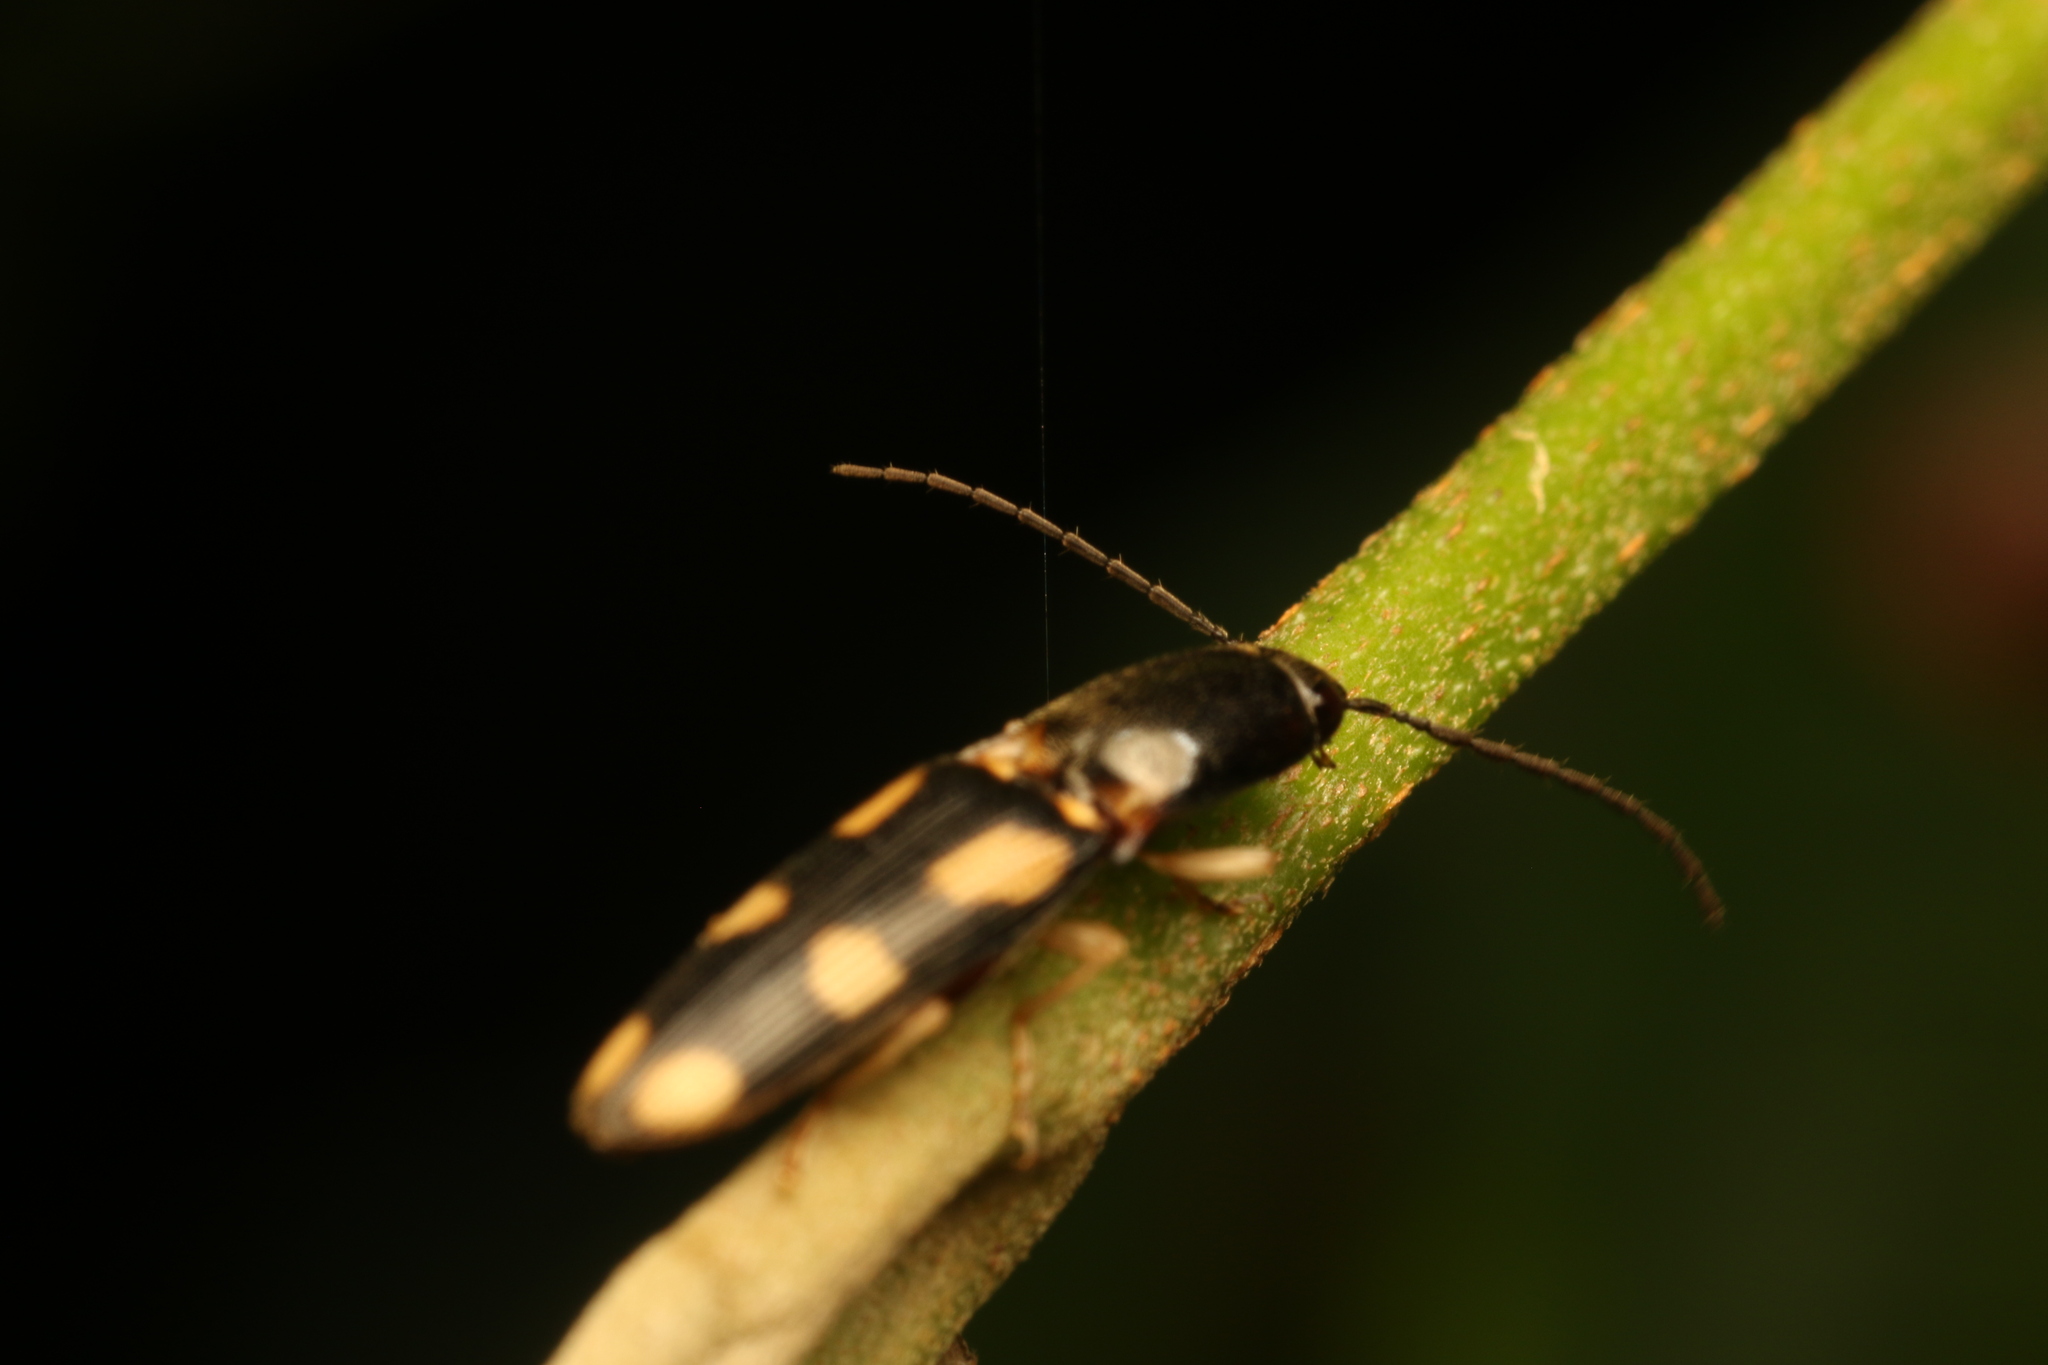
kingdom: Animalia
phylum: Arthropoda
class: Insecta
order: Coleoptera
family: Elateridae
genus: Aeolus
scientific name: Aeolus
